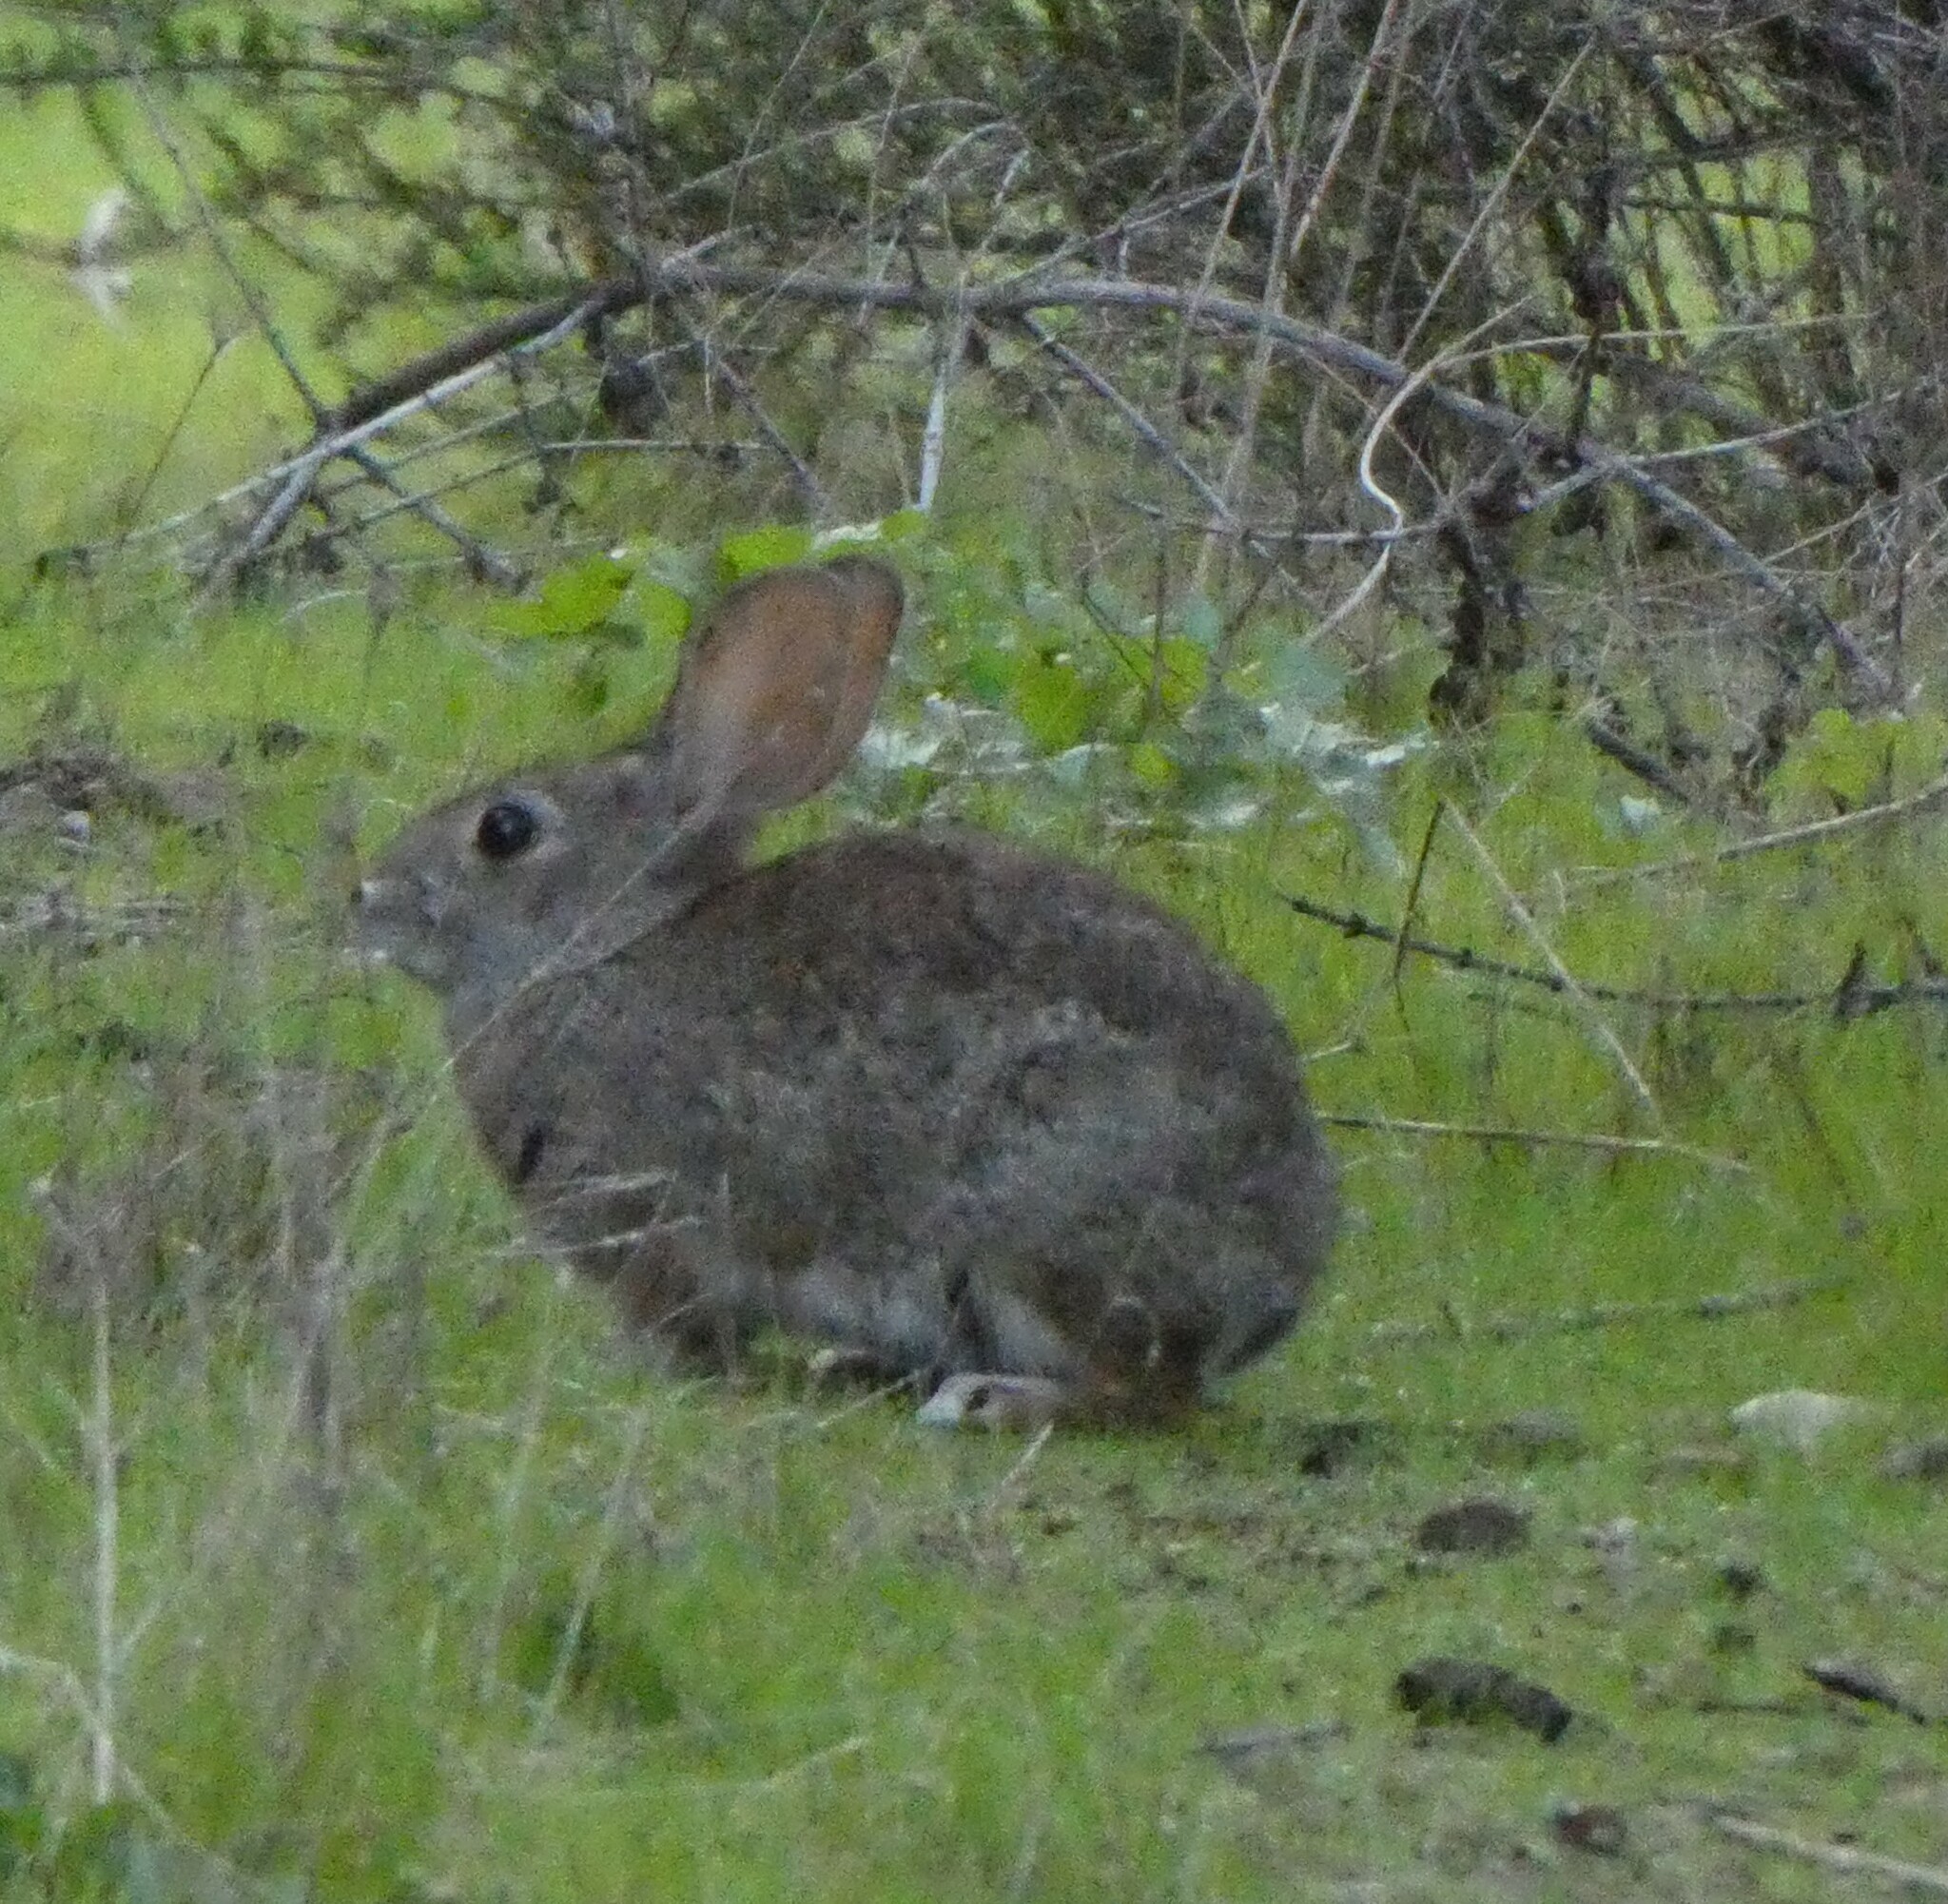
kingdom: Animalia
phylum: Chordata
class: Mammalia
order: Lagomorpha
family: Leporidae
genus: Sylvilagus
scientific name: Sylvilagus bachmani
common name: Brush rabbit
